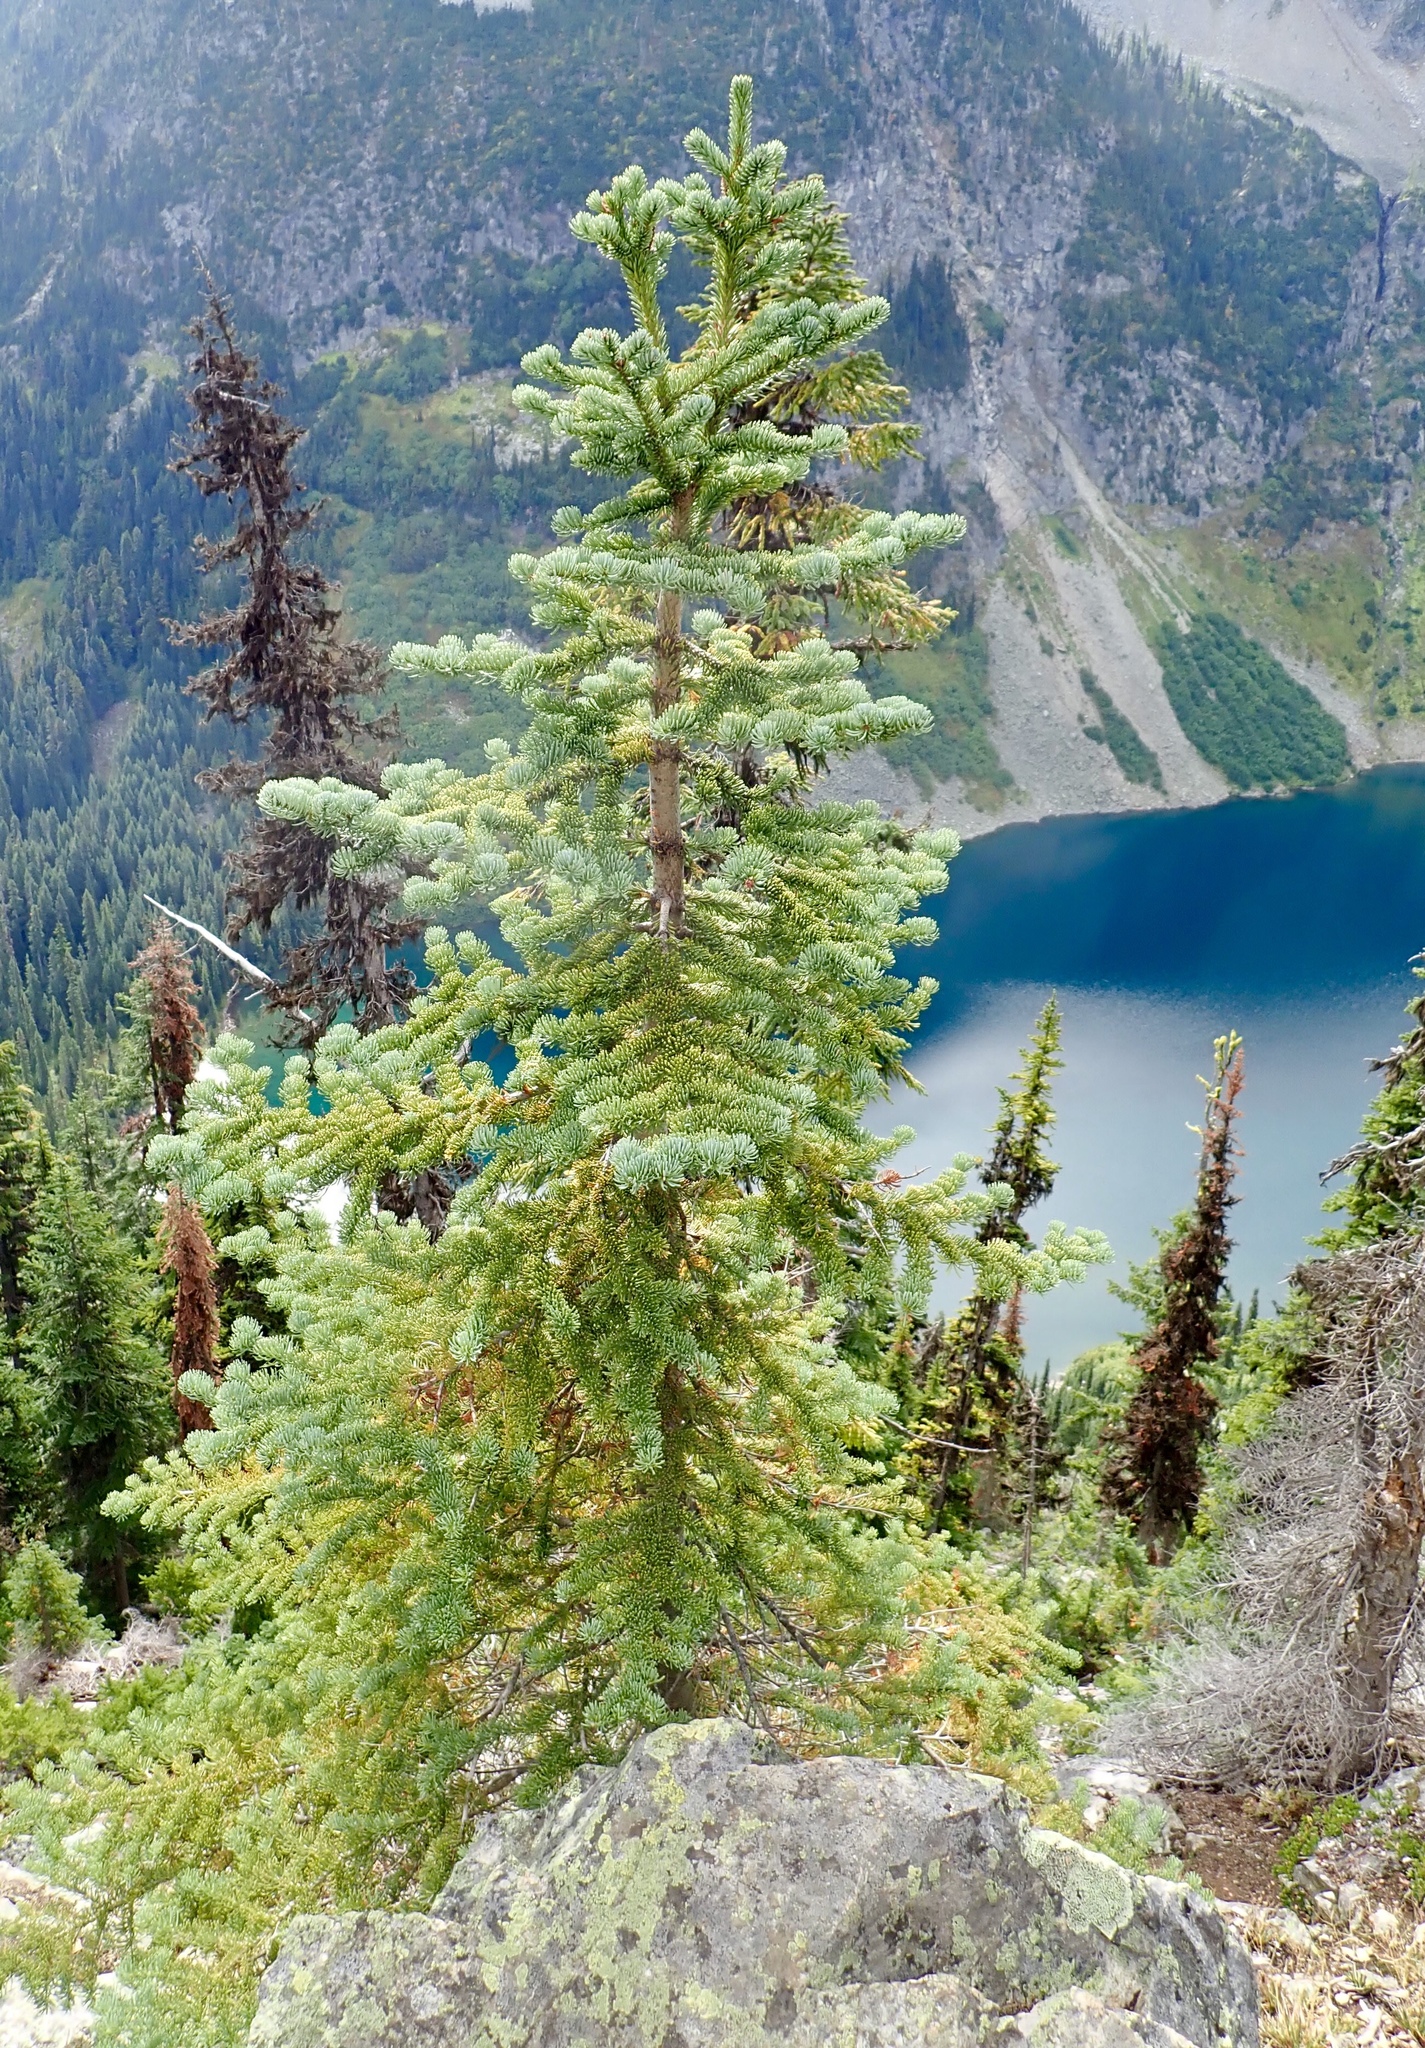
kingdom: Plantae
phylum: Tracheophyta
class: Pinopsida
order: Pinales
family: Pinaceae
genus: Abies
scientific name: Abies lasiocarpa
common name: Subalpine fir
